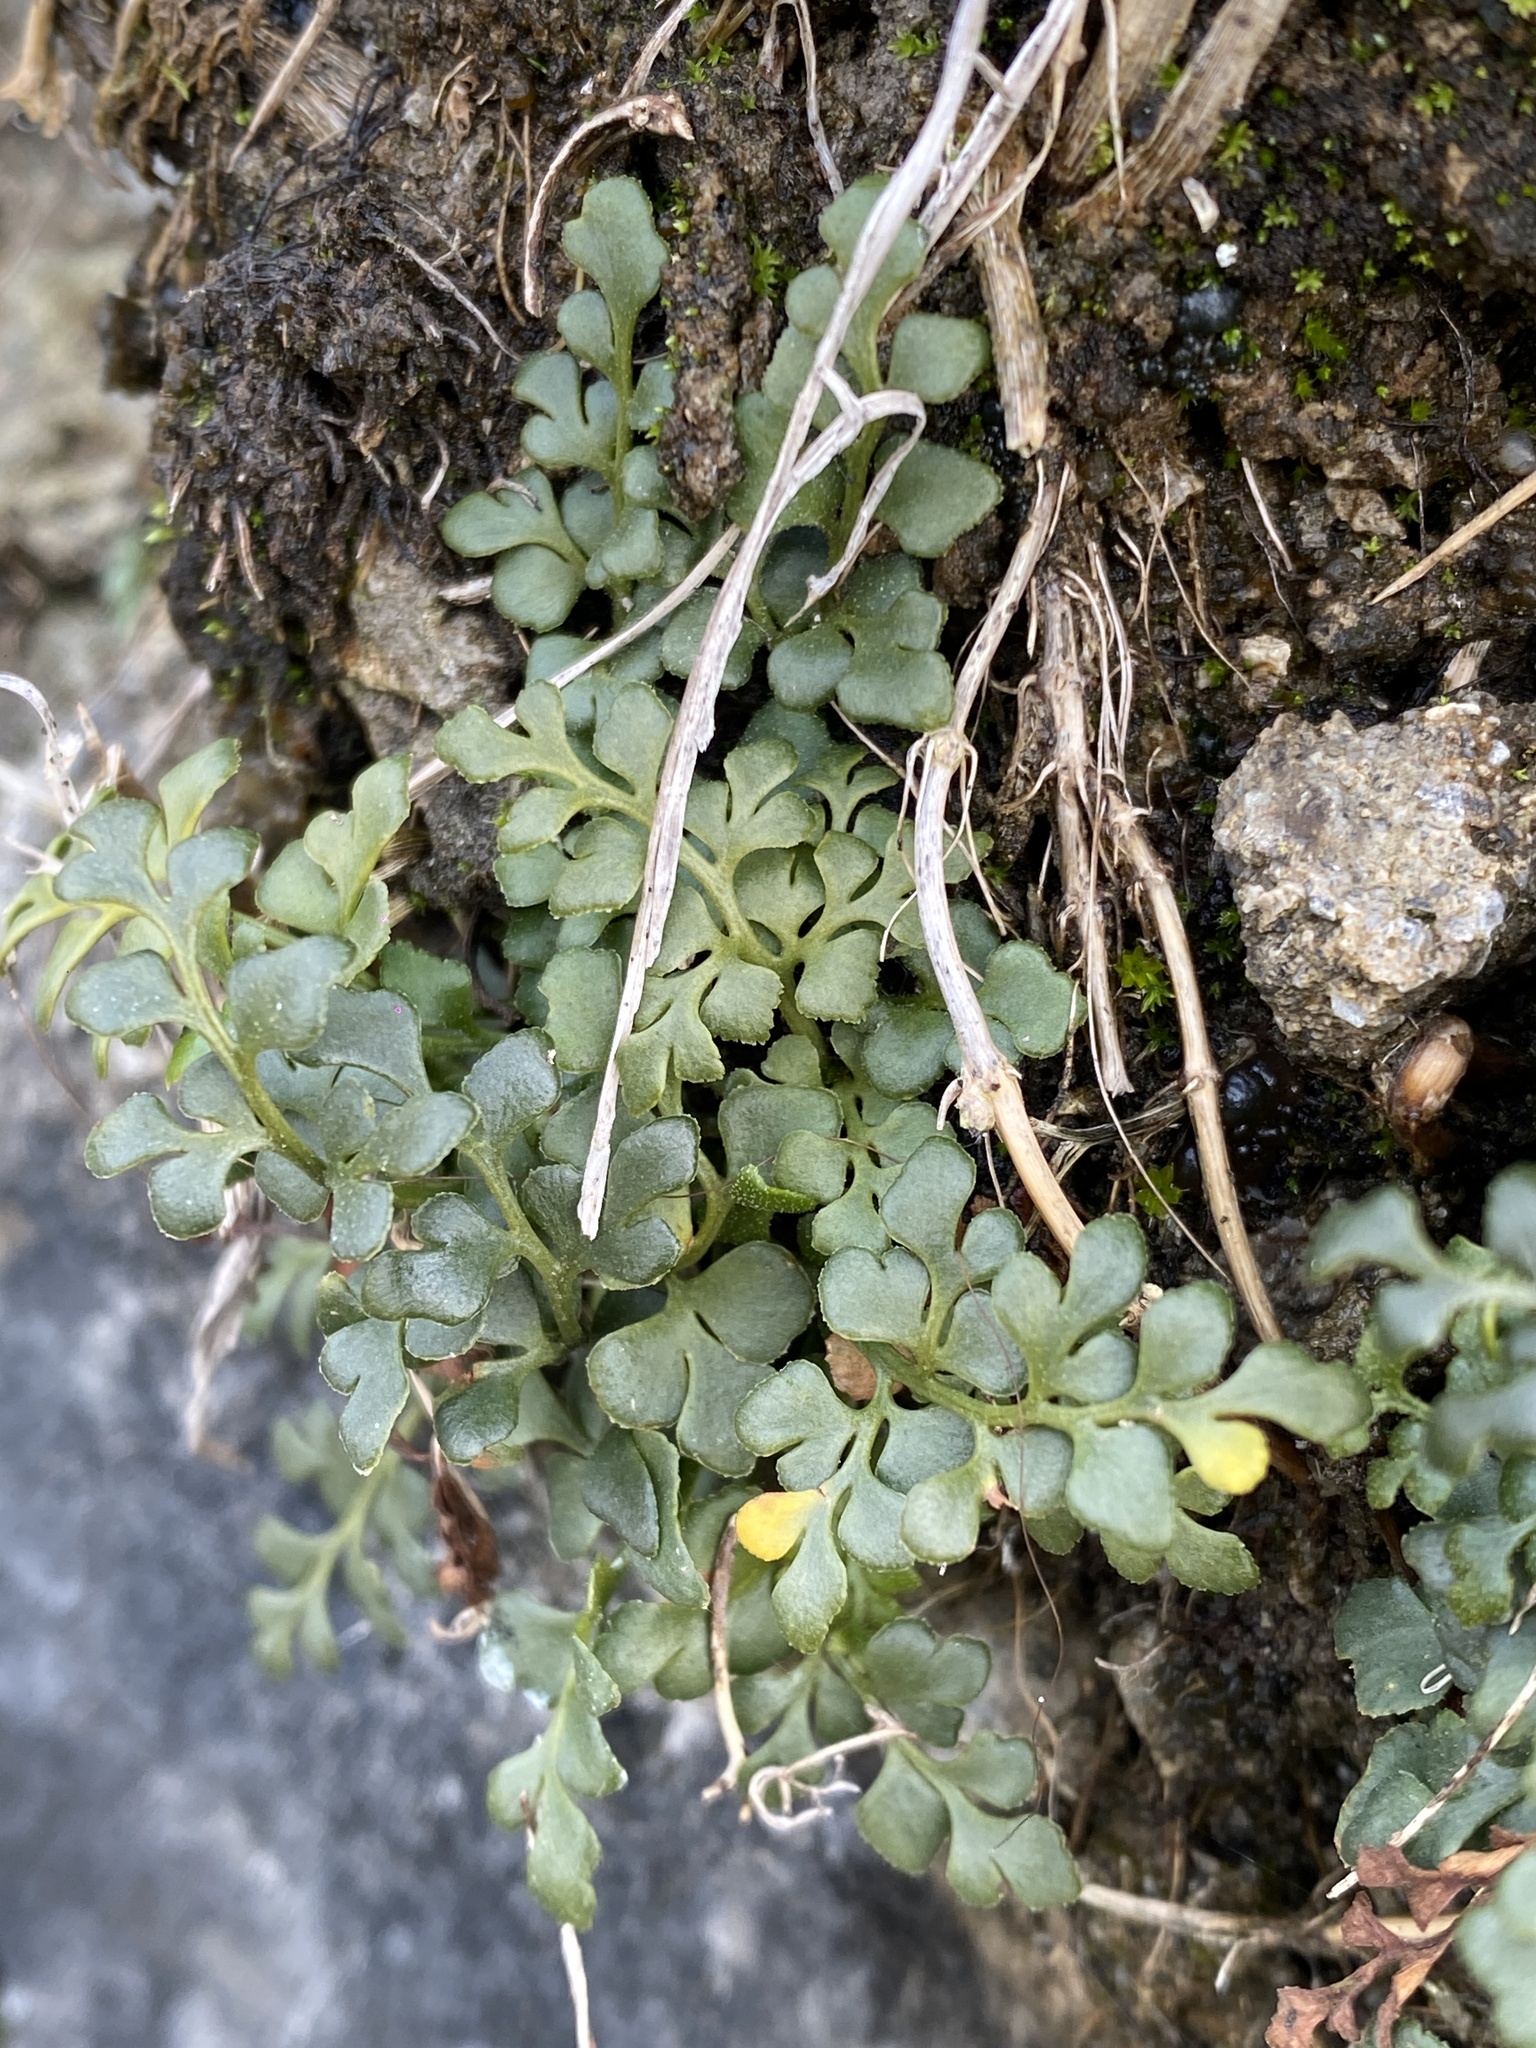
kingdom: Plantae
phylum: Tracheophyta
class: Polypodiopsida
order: Polypodiales
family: Aspleniaceae
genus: Asplenium
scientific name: Asplenium ruta-muraria
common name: Wall-rue
